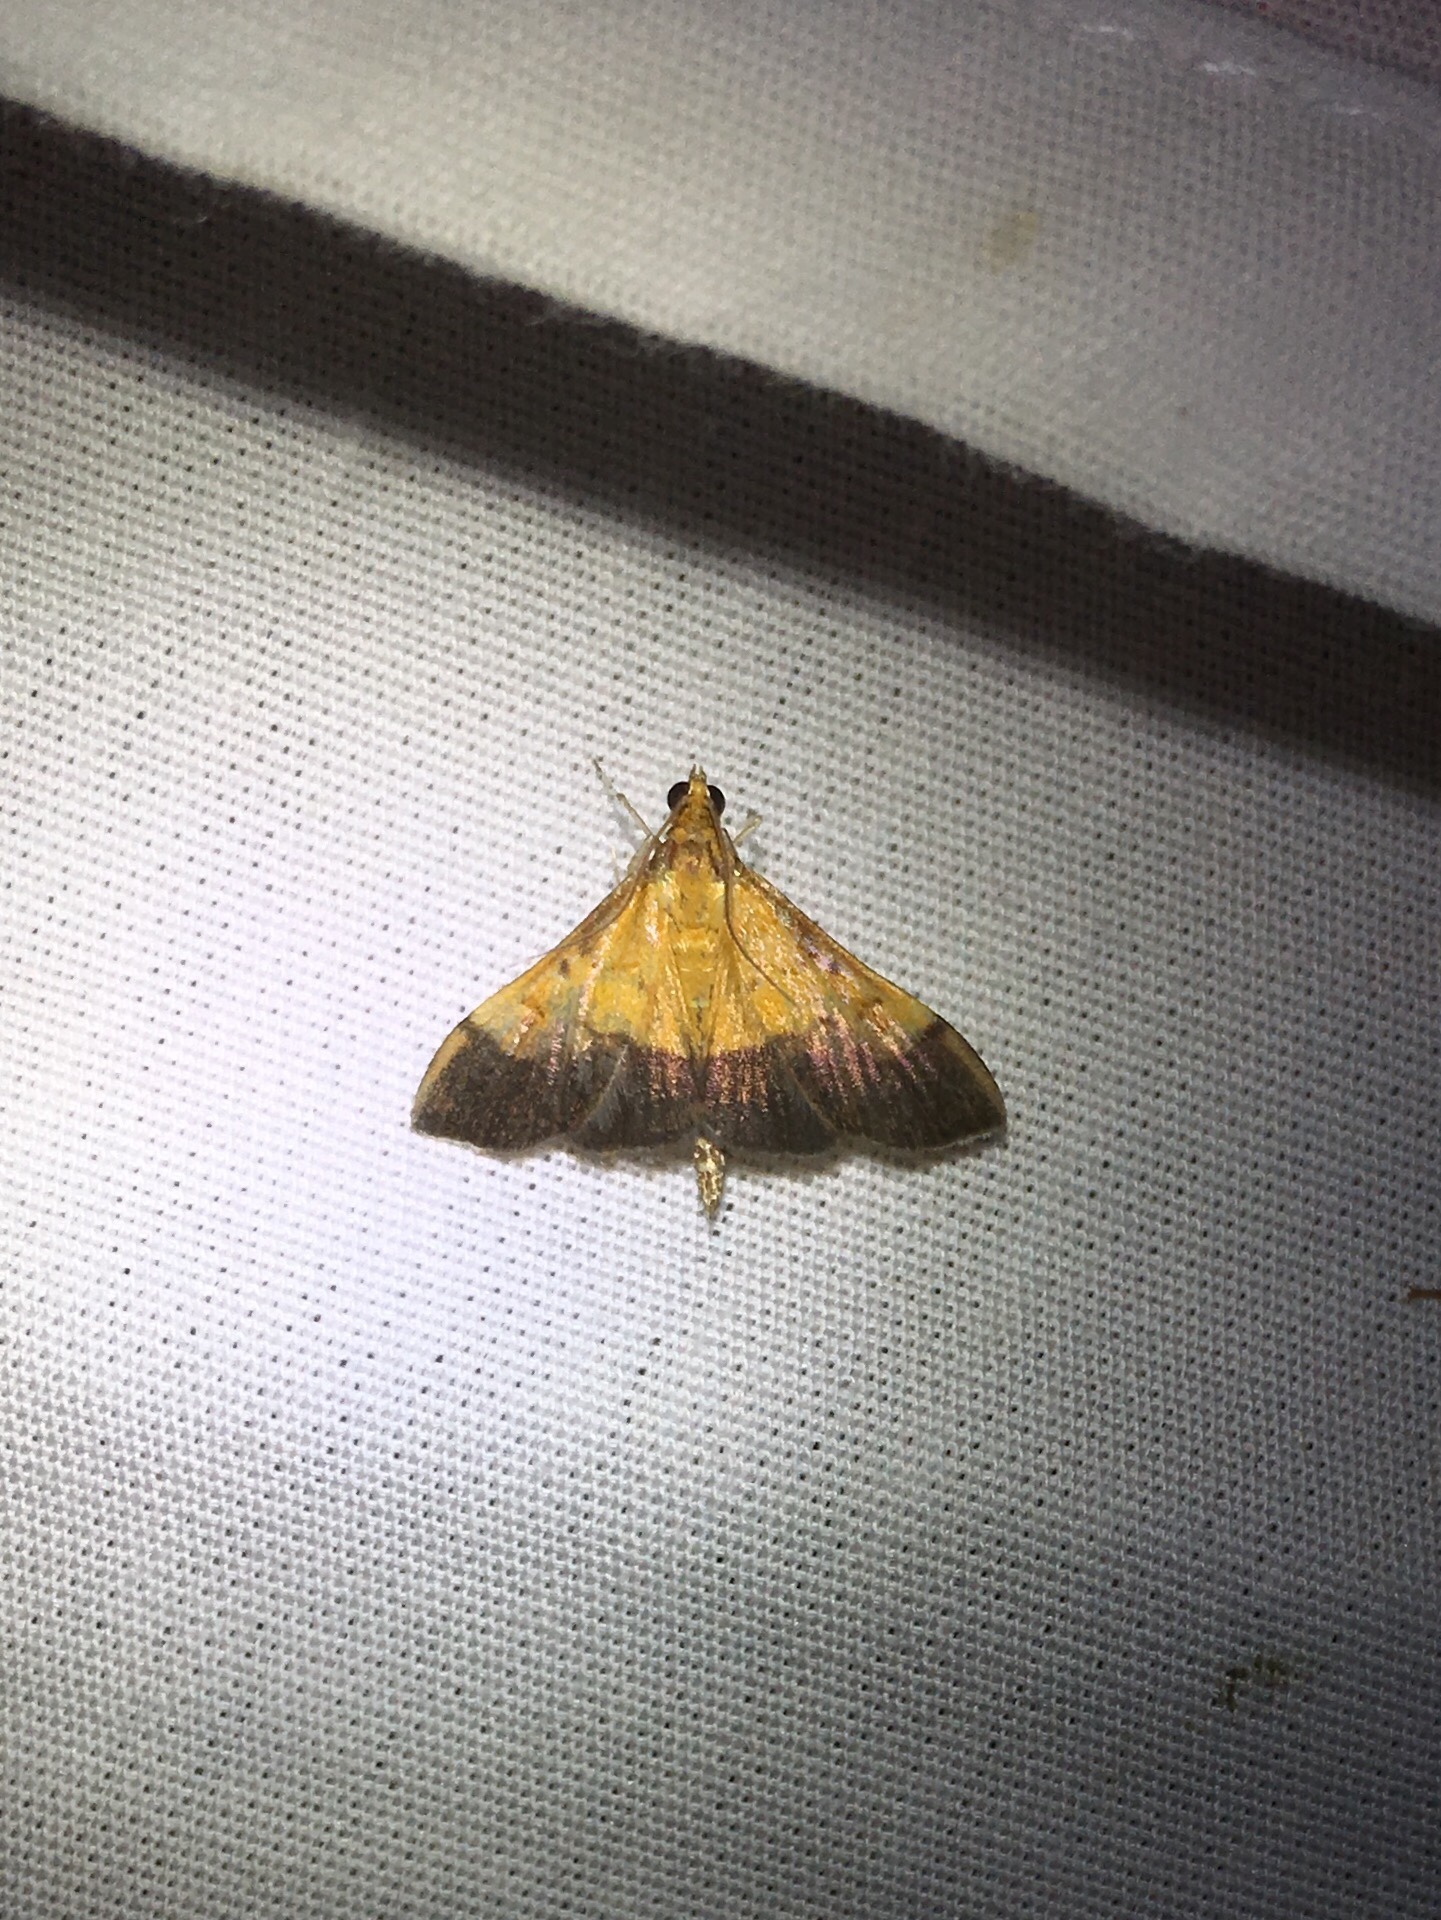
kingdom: Animalia
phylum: Arthropoda
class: Insecta
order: Lepidoptera
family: Crambidae
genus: Pyrausta
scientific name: Pyrausta bicoloralis
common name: Bicolored pyrausta moth
